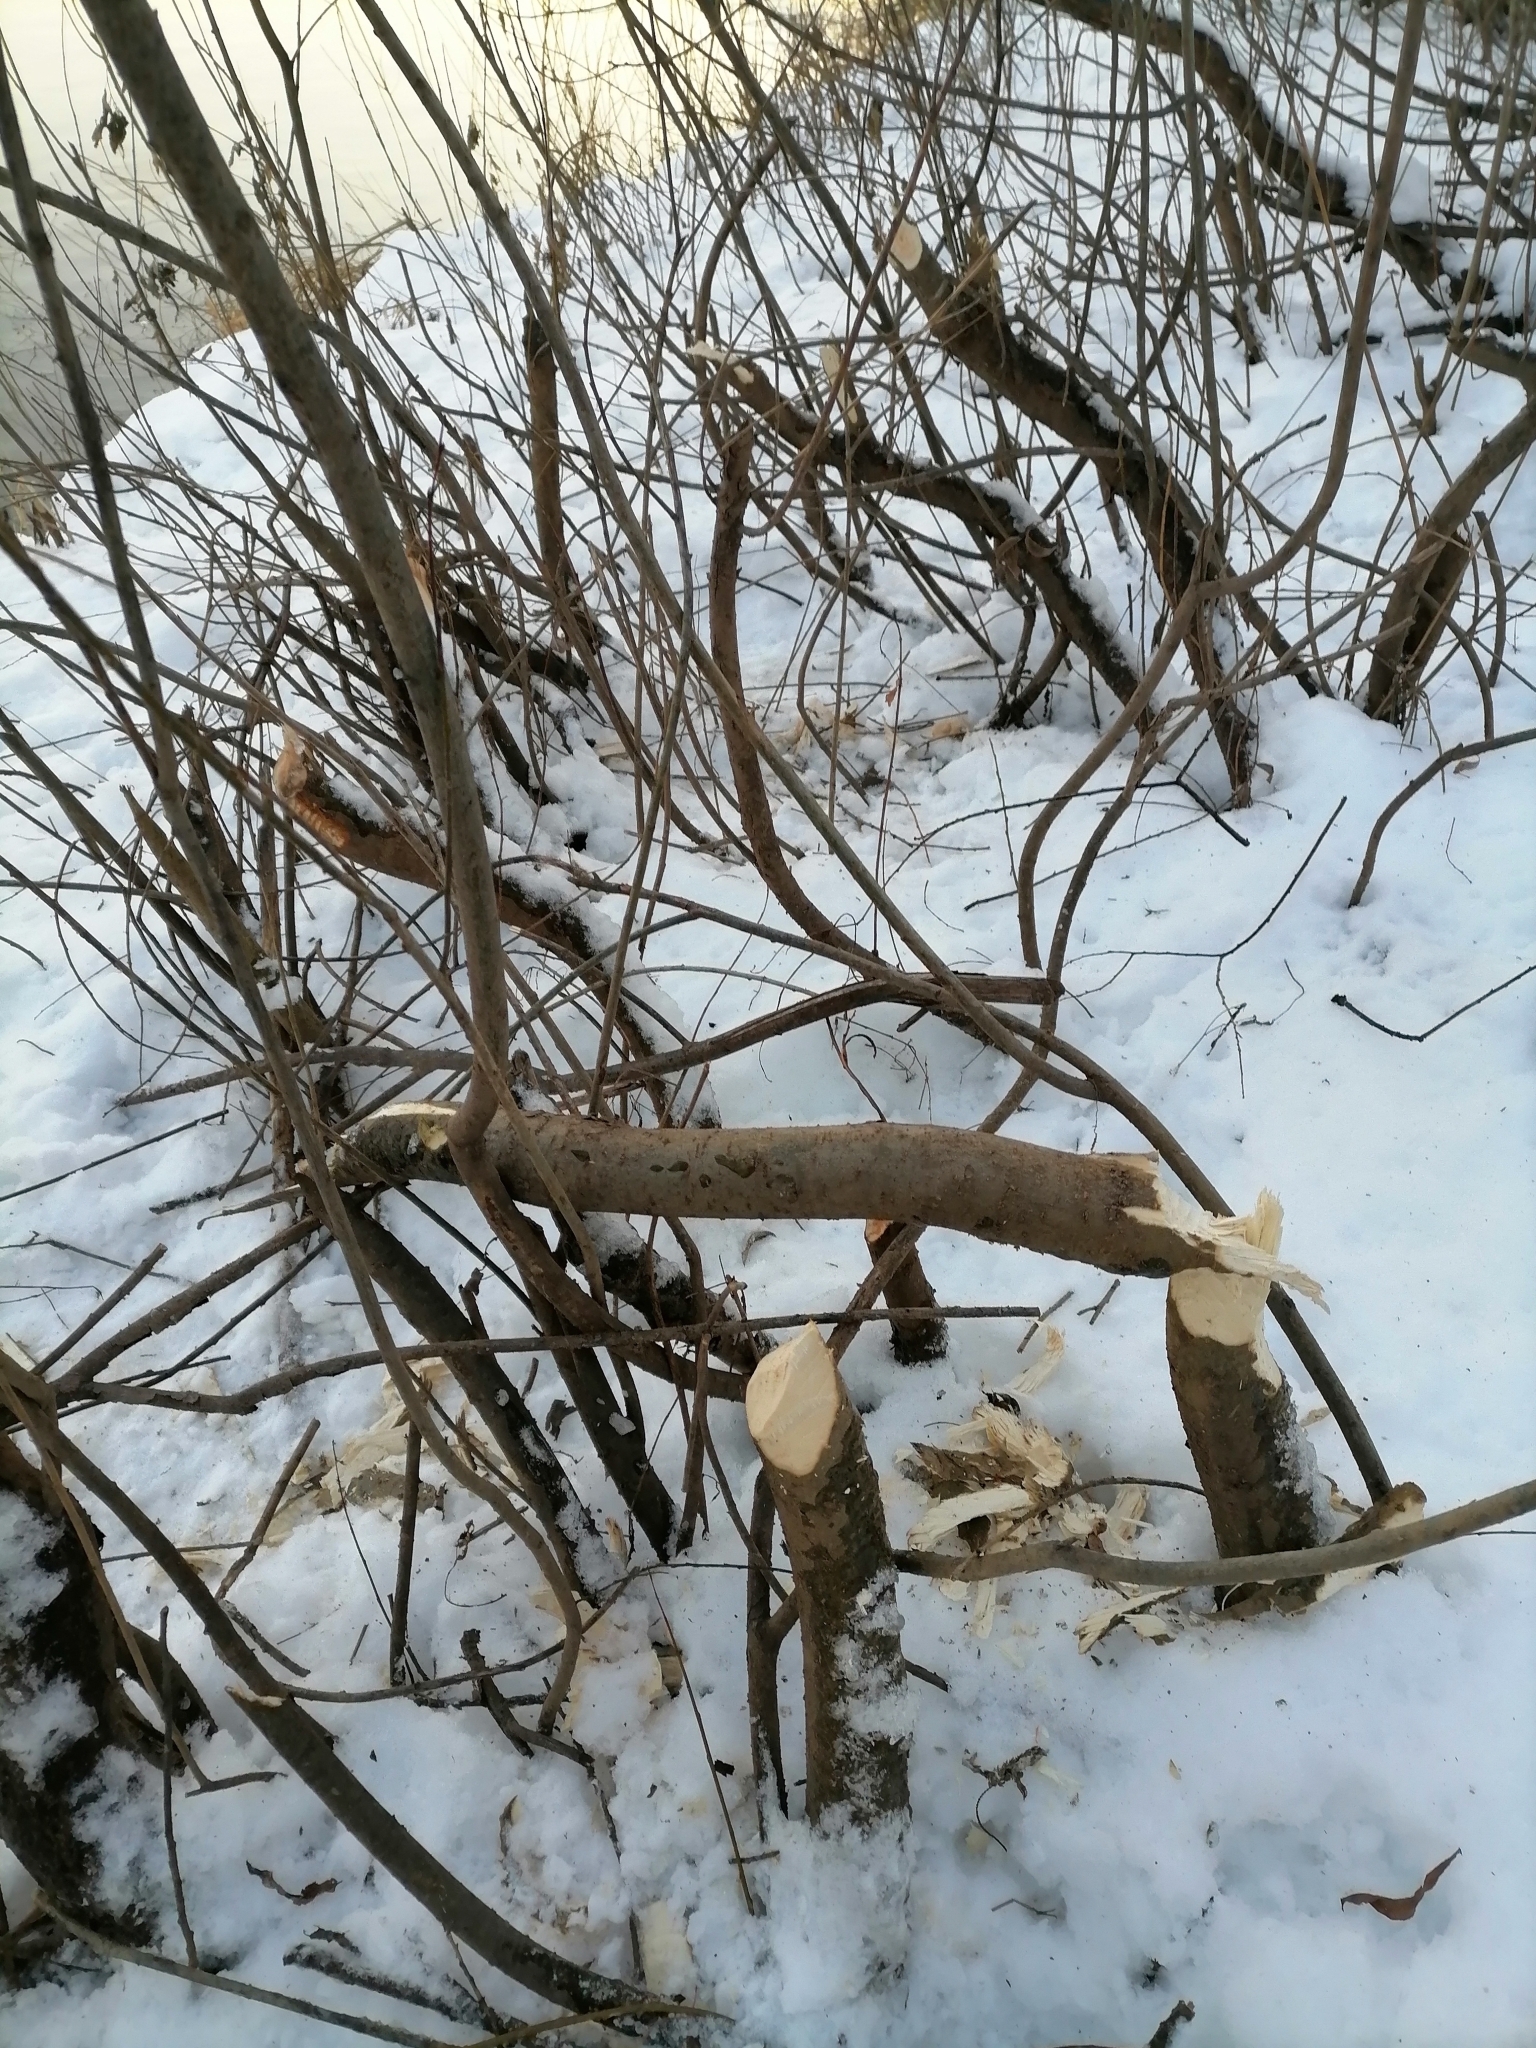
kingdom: Animalia
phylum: Chordata
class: Mammalia
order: Rodentia
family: Castoridae
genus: Castor
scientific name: Castor fiber
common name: Eurasian beaver
